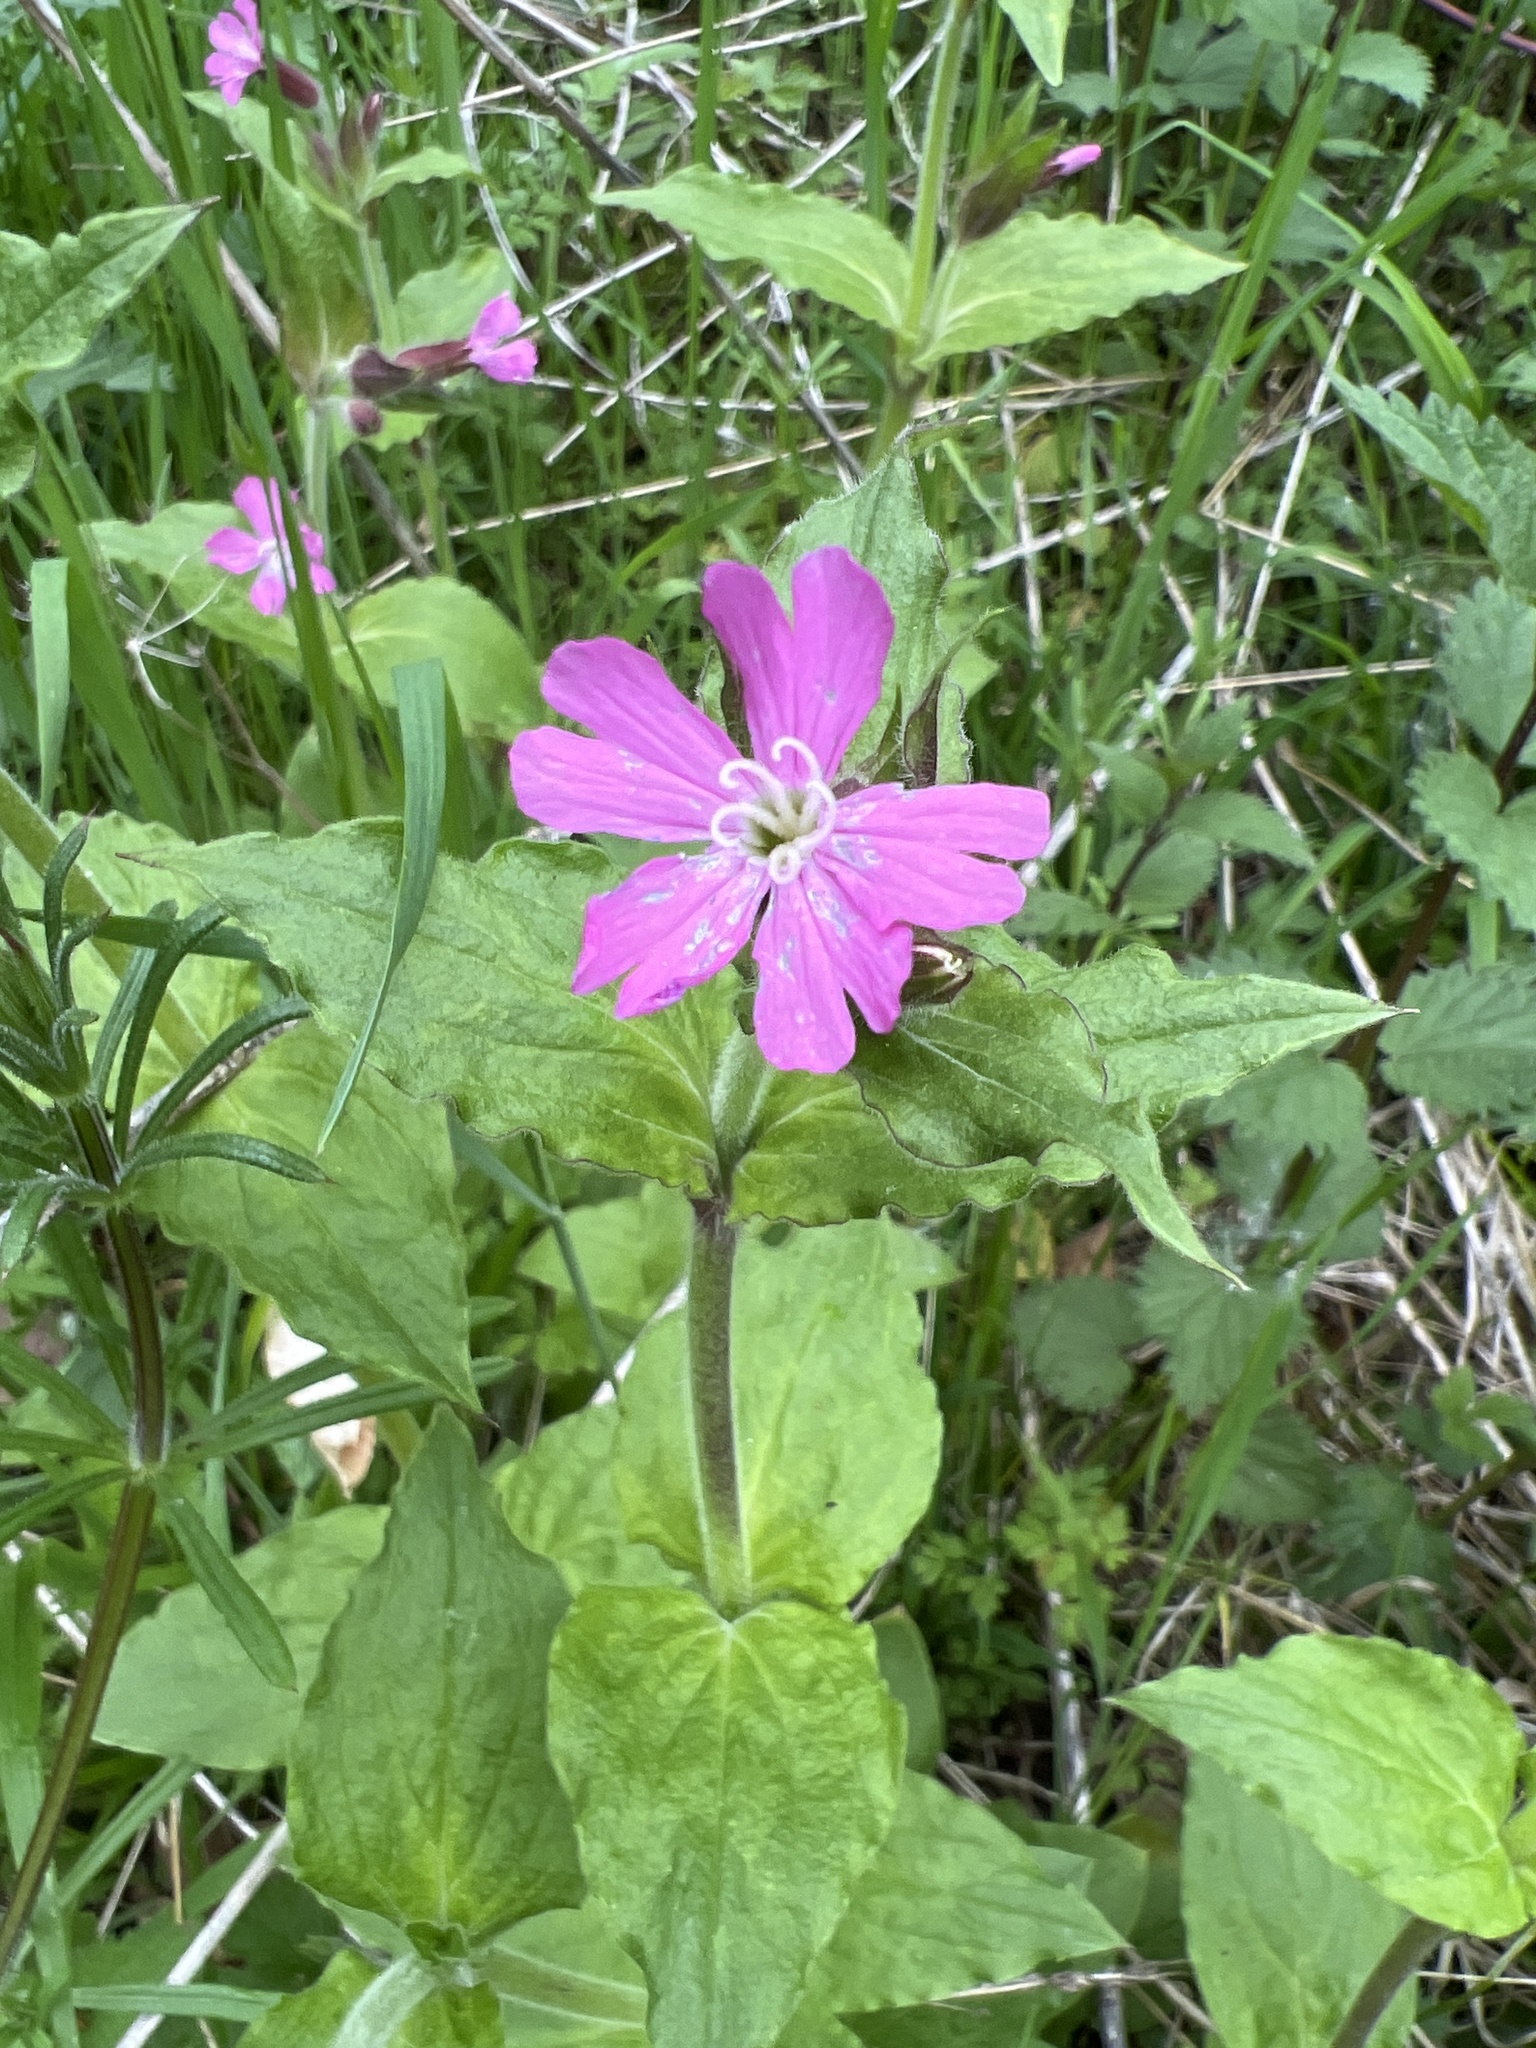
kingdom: Plantae
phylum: Tracheophyta
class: Magnoliopsida
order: Caryophyllales
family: Caryophyllaceae
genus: Silene
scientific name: Silene dioica
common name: Red campion
